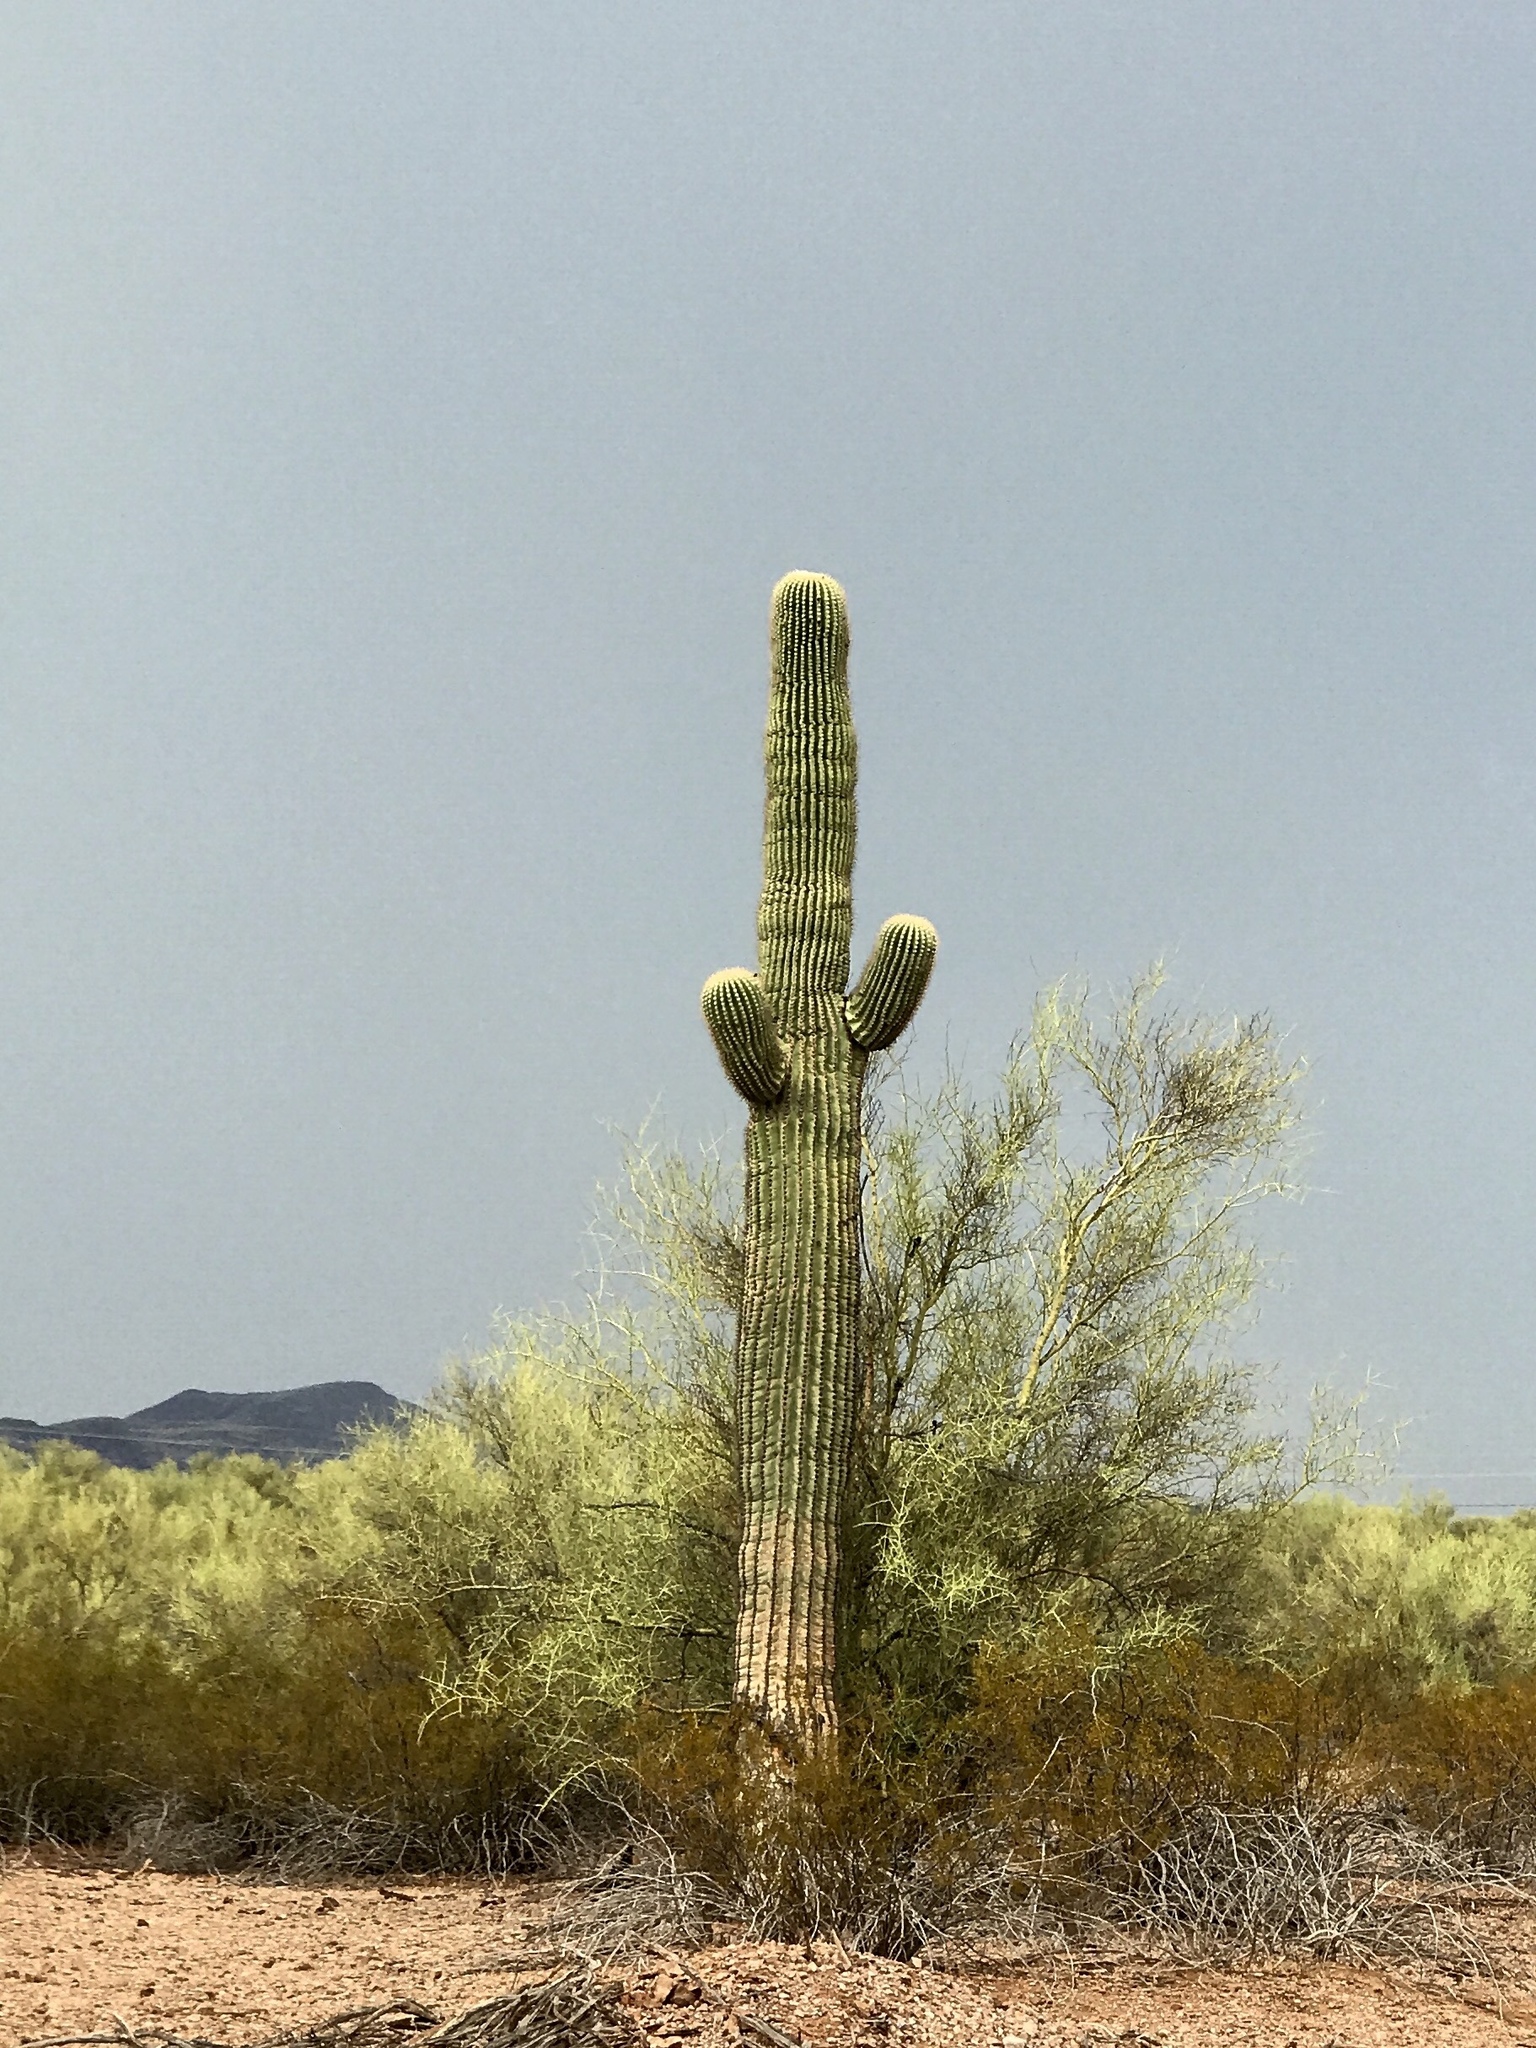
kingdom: Plantae
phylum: Tracheophyta
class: Magnoliopsida
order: Caryophyllales
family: Cactaceae
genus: Carnegiea
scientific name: Carnegiea gigantea
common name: Saguaro
